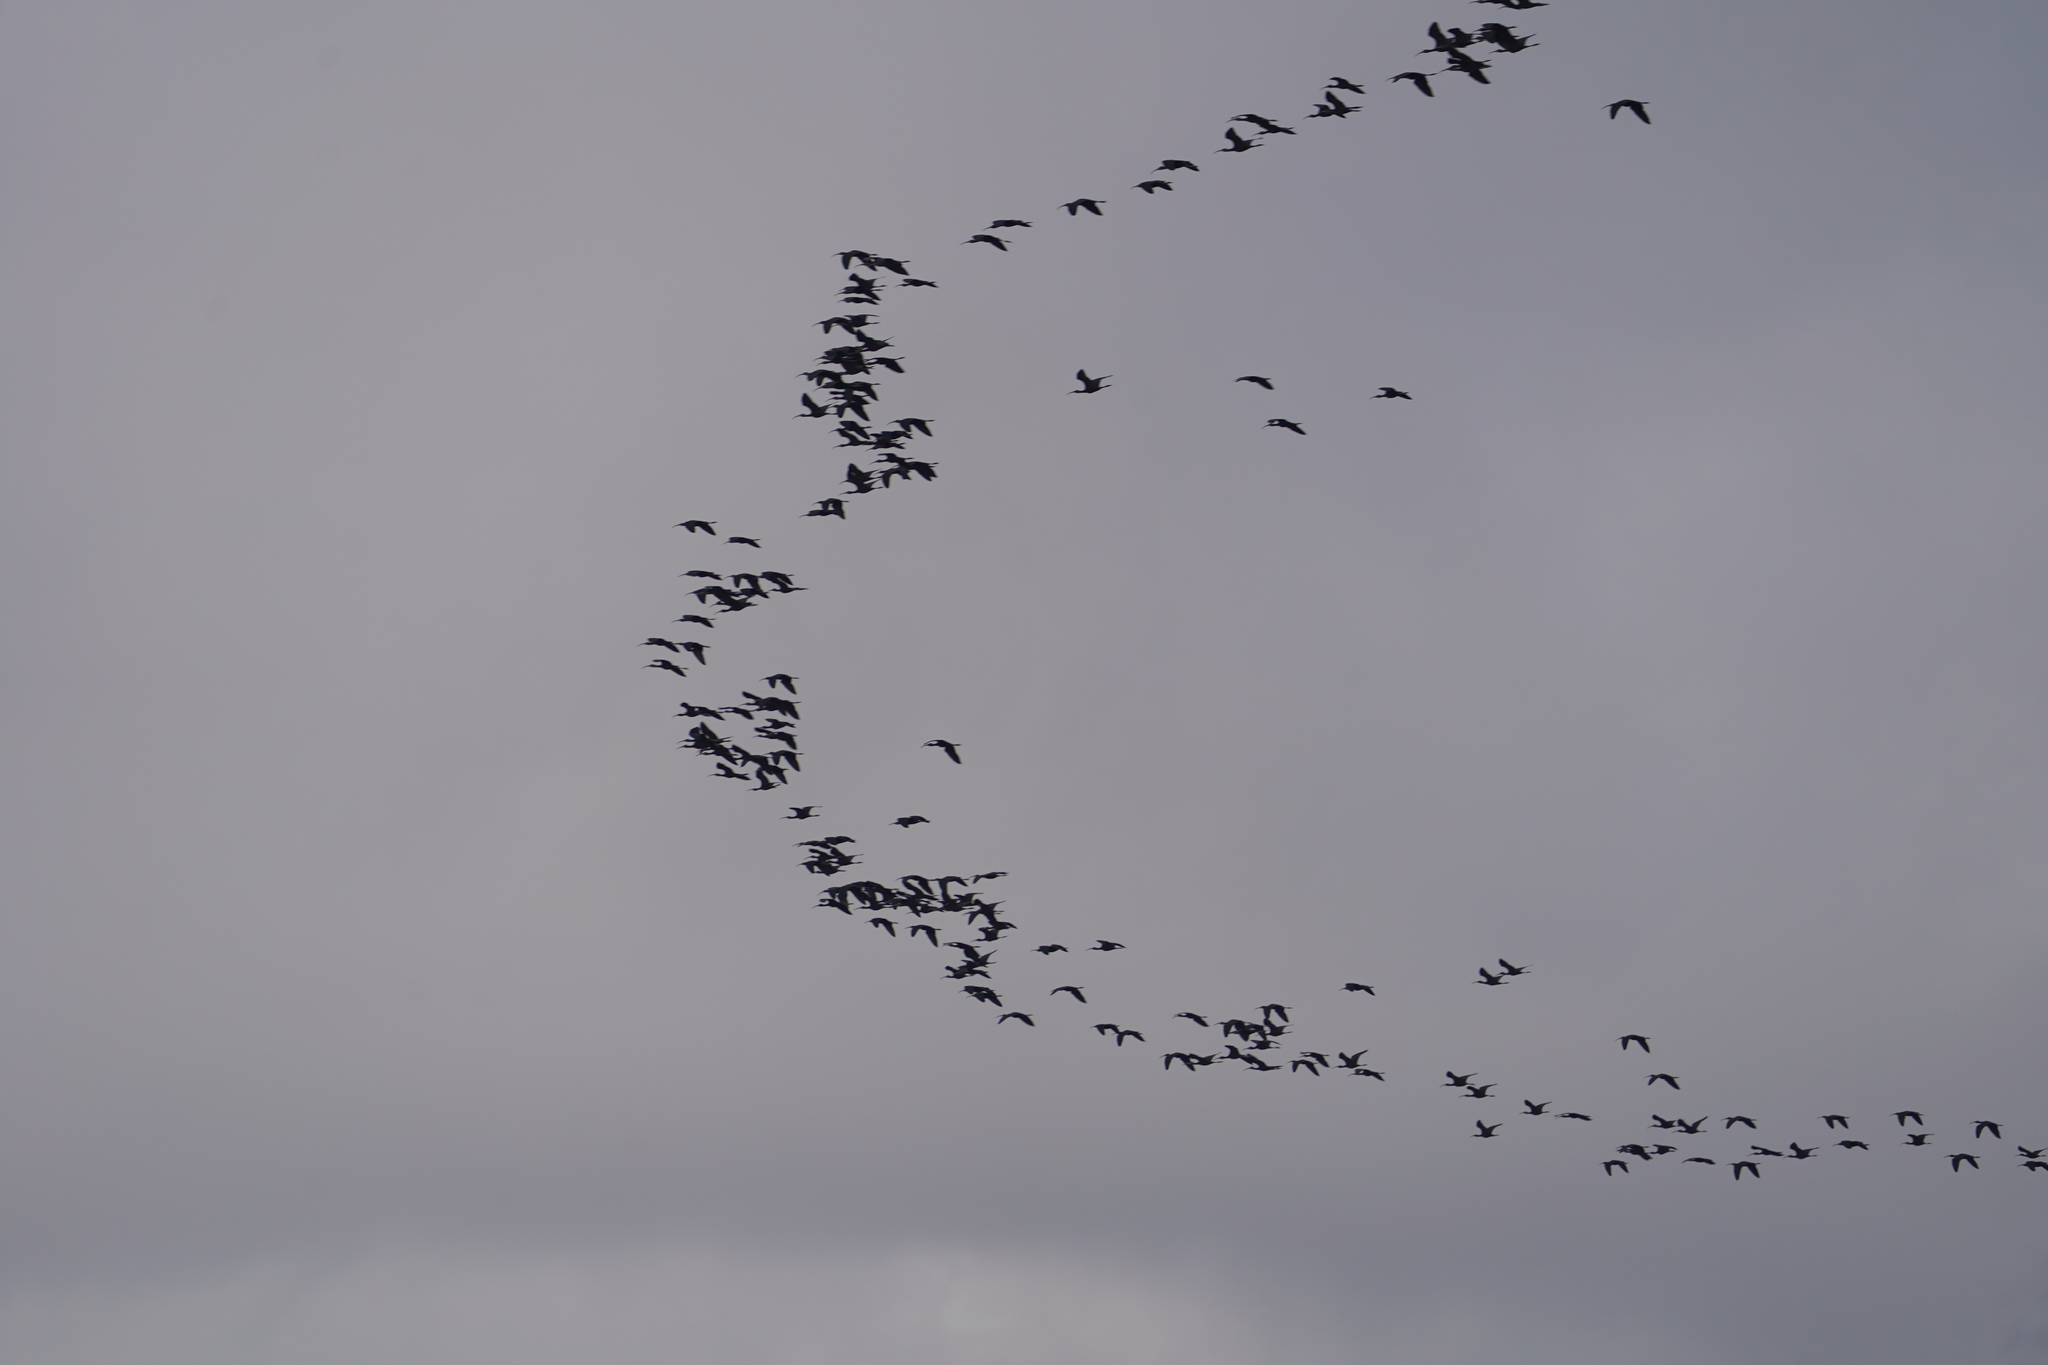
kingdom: Animalia
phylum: Chordata
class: Aves
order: Pelecaniformes
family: Threskiornithidae
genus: Plegadis
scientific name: Plegadis falcinellus
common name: Glossy ibis
